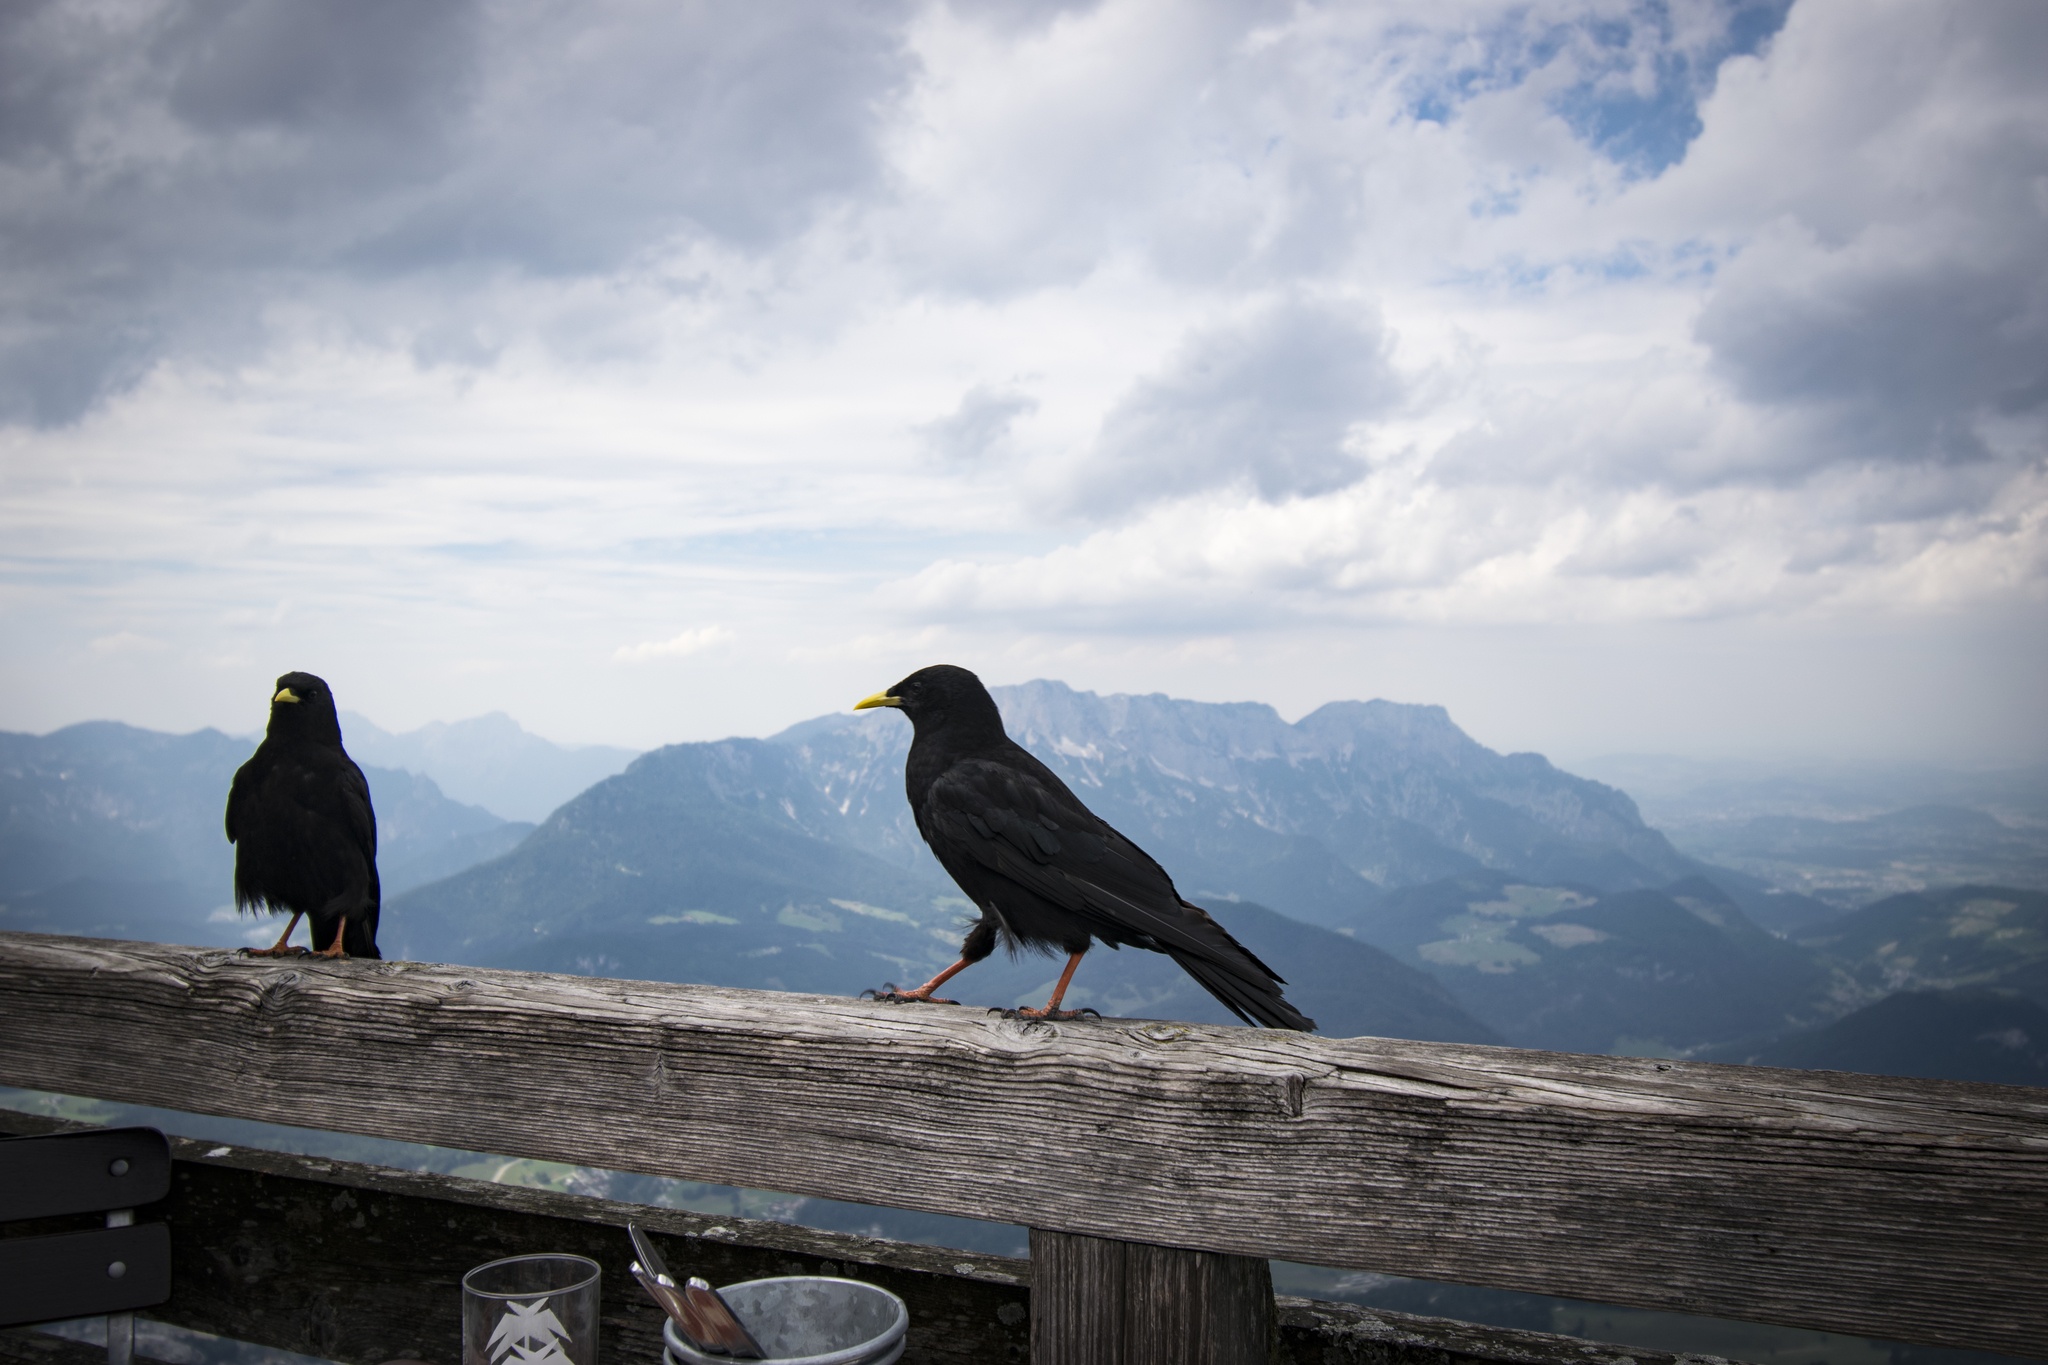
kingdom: Animalia
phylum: Chordata
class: Aves
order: Passeriformes
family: Corvidae
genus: Pyrrhocorax
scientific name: Pyrrhocorax graculus
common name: Alpine chough
